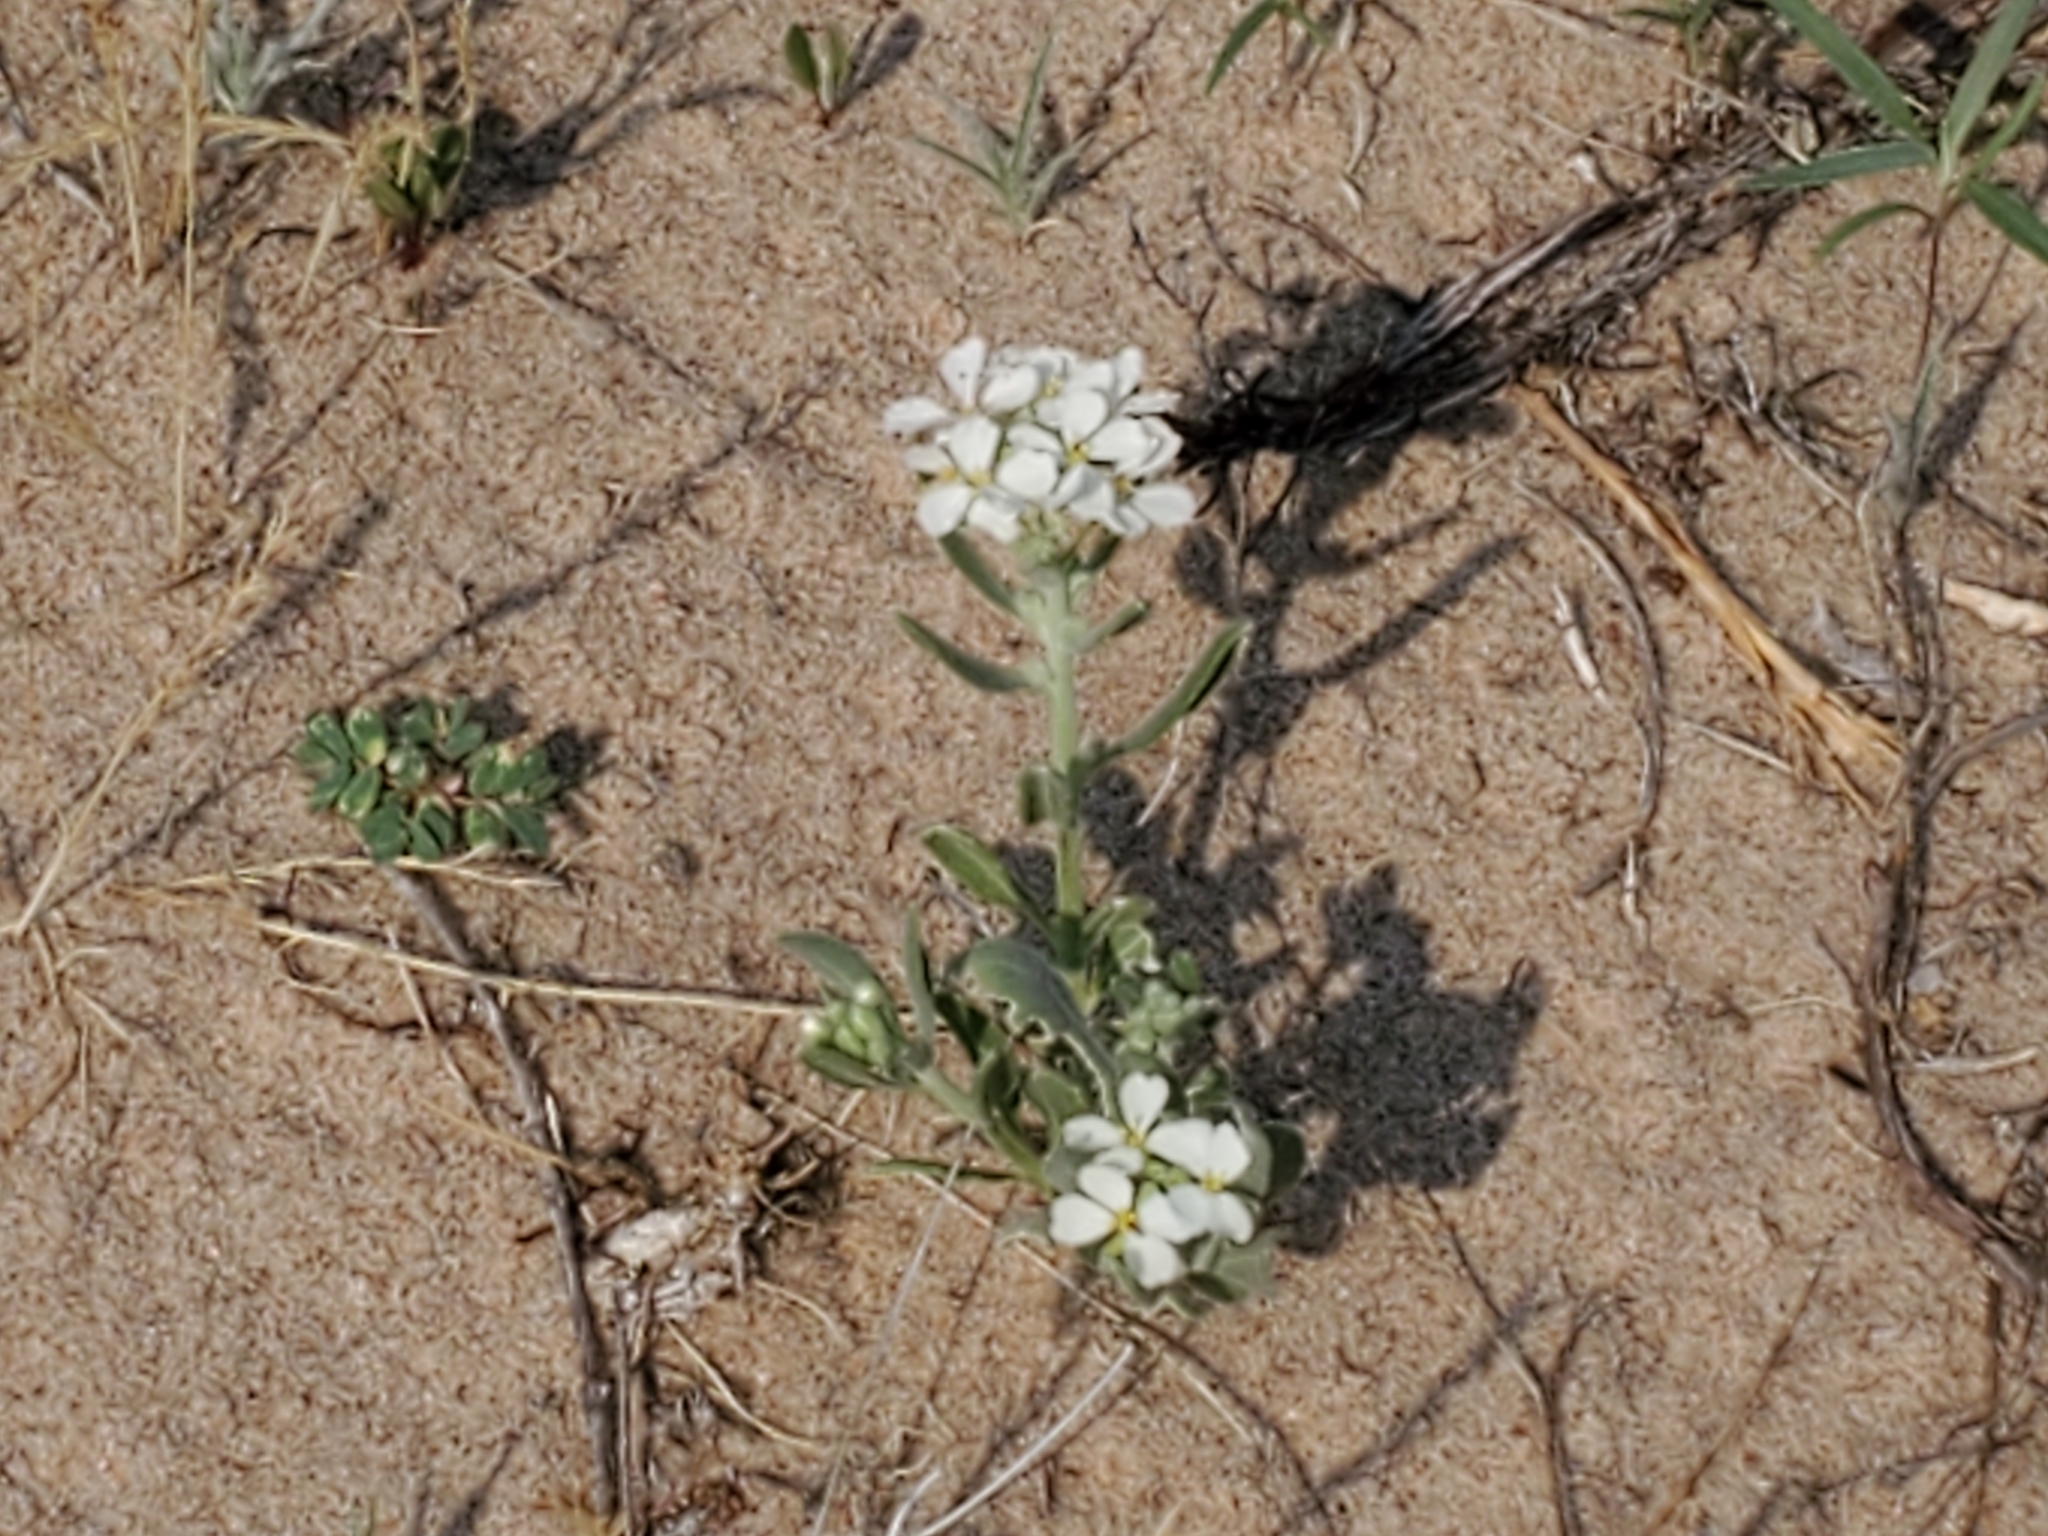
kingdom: Plantae
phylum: Tracheophyta
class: Magnoliopsida
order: Brassicales
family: Brassicaceae
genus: Dimorphocarpa
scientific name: Dimorphocarpa wislizenii
